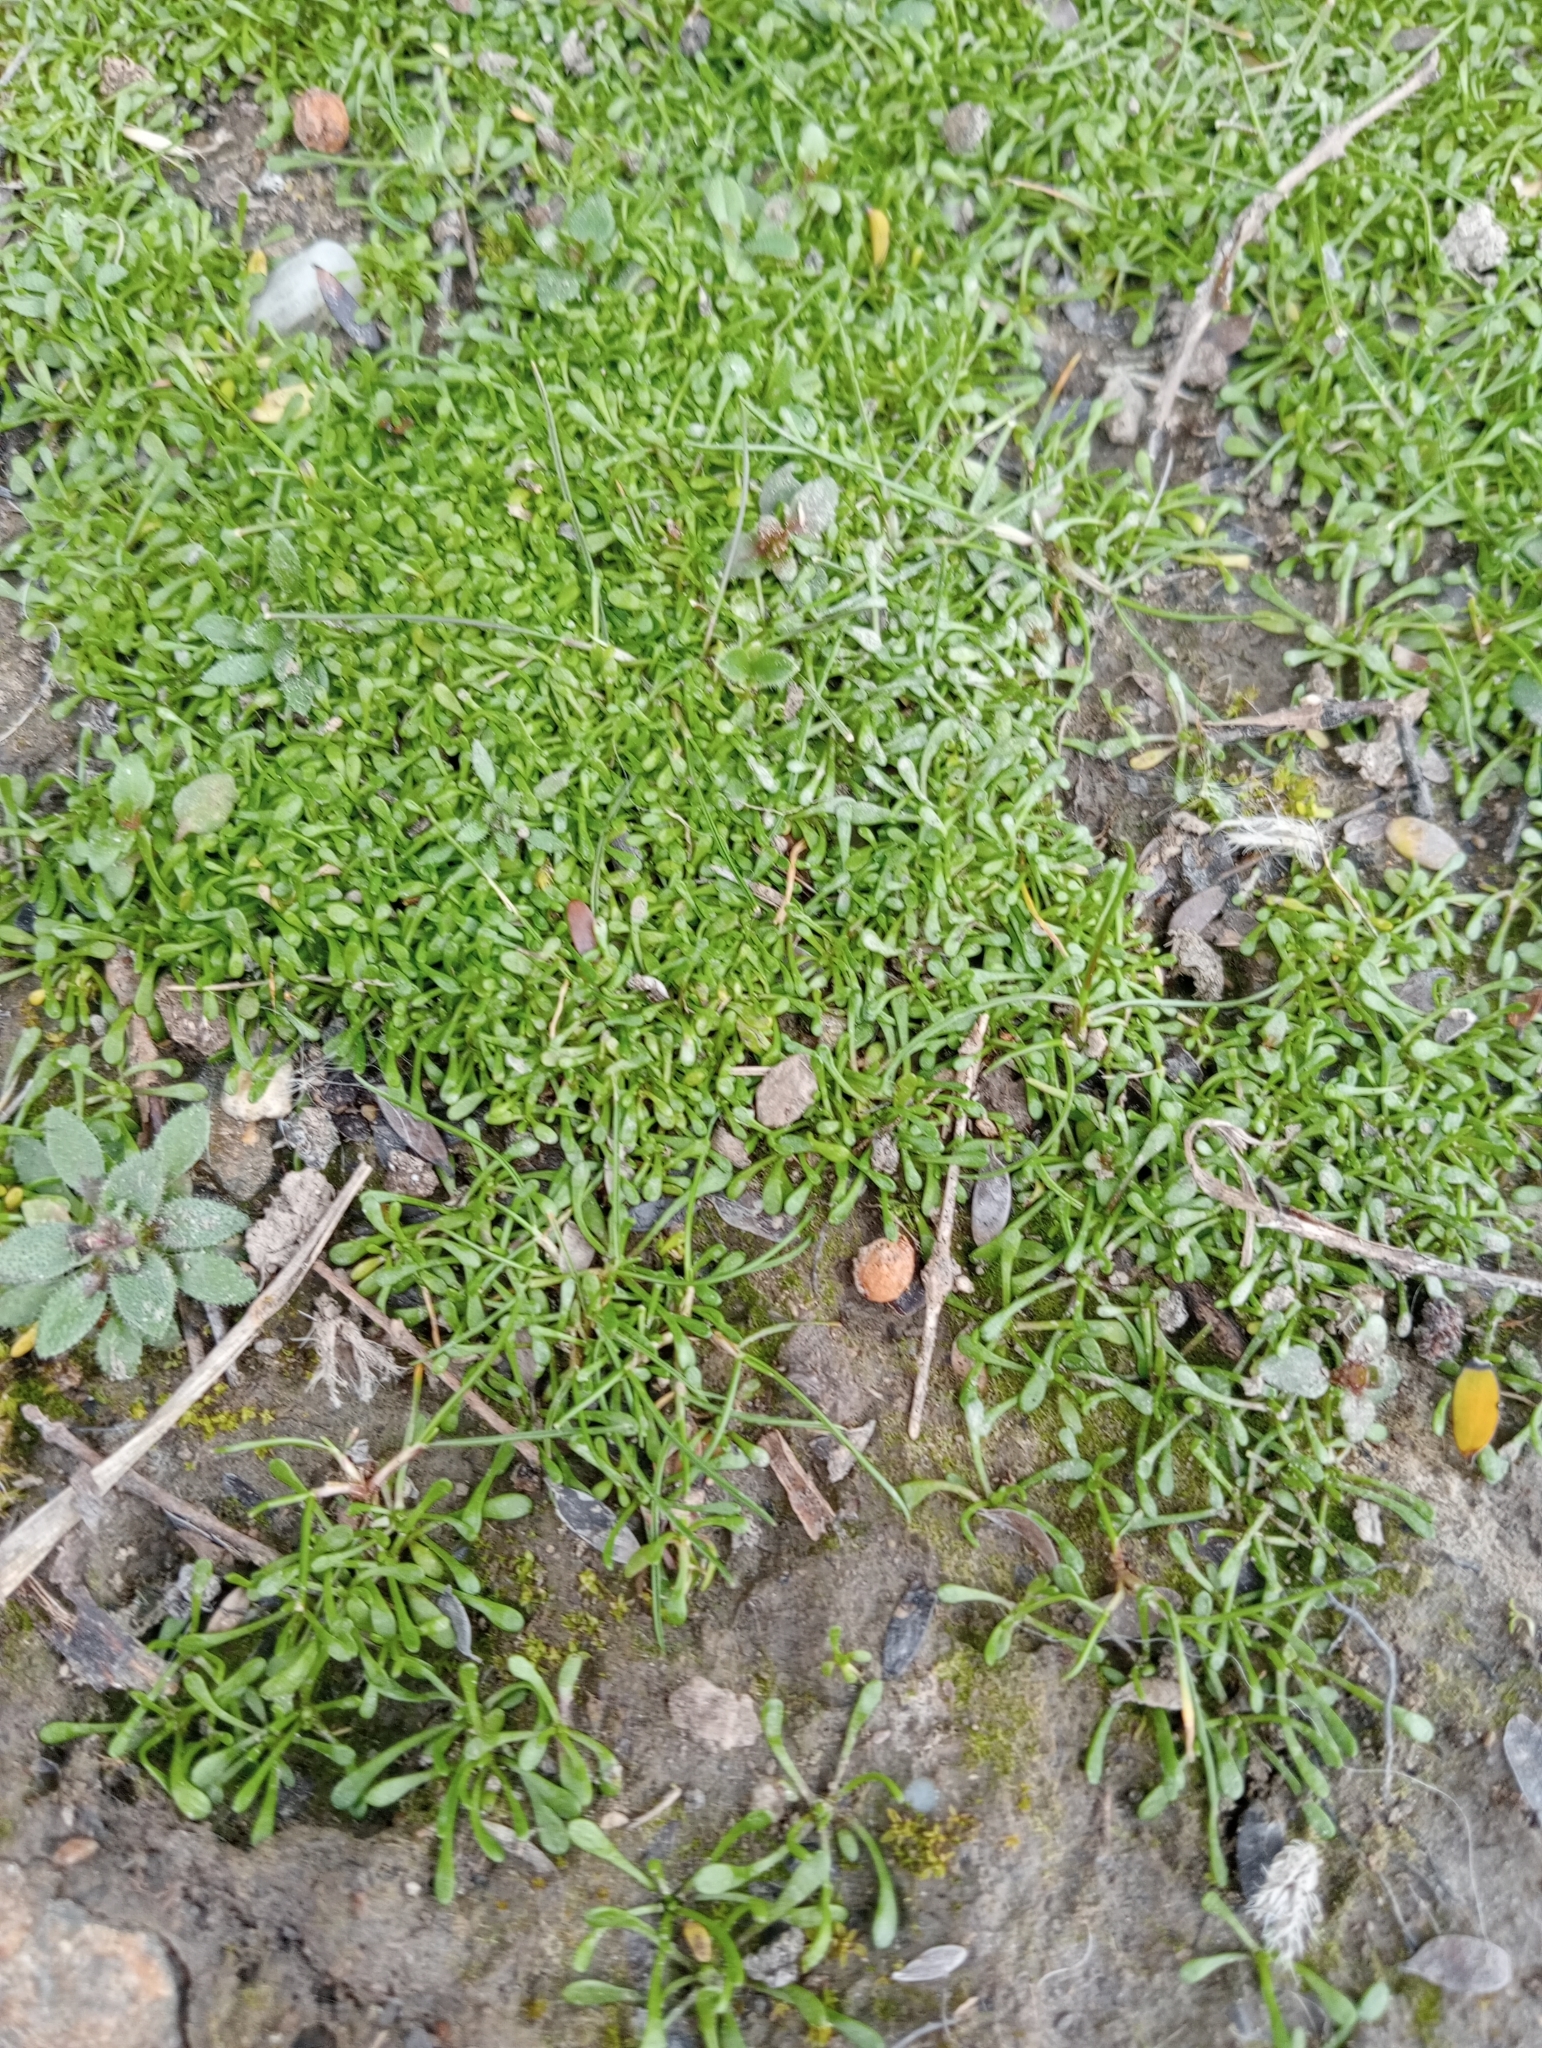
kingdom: Plantae
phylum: Tracheophyta
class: Magnoliopsida
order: Ranunculales
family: Ranunculaceae
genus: Myosurus
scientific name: Myosurus minimus
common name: Mousetail
